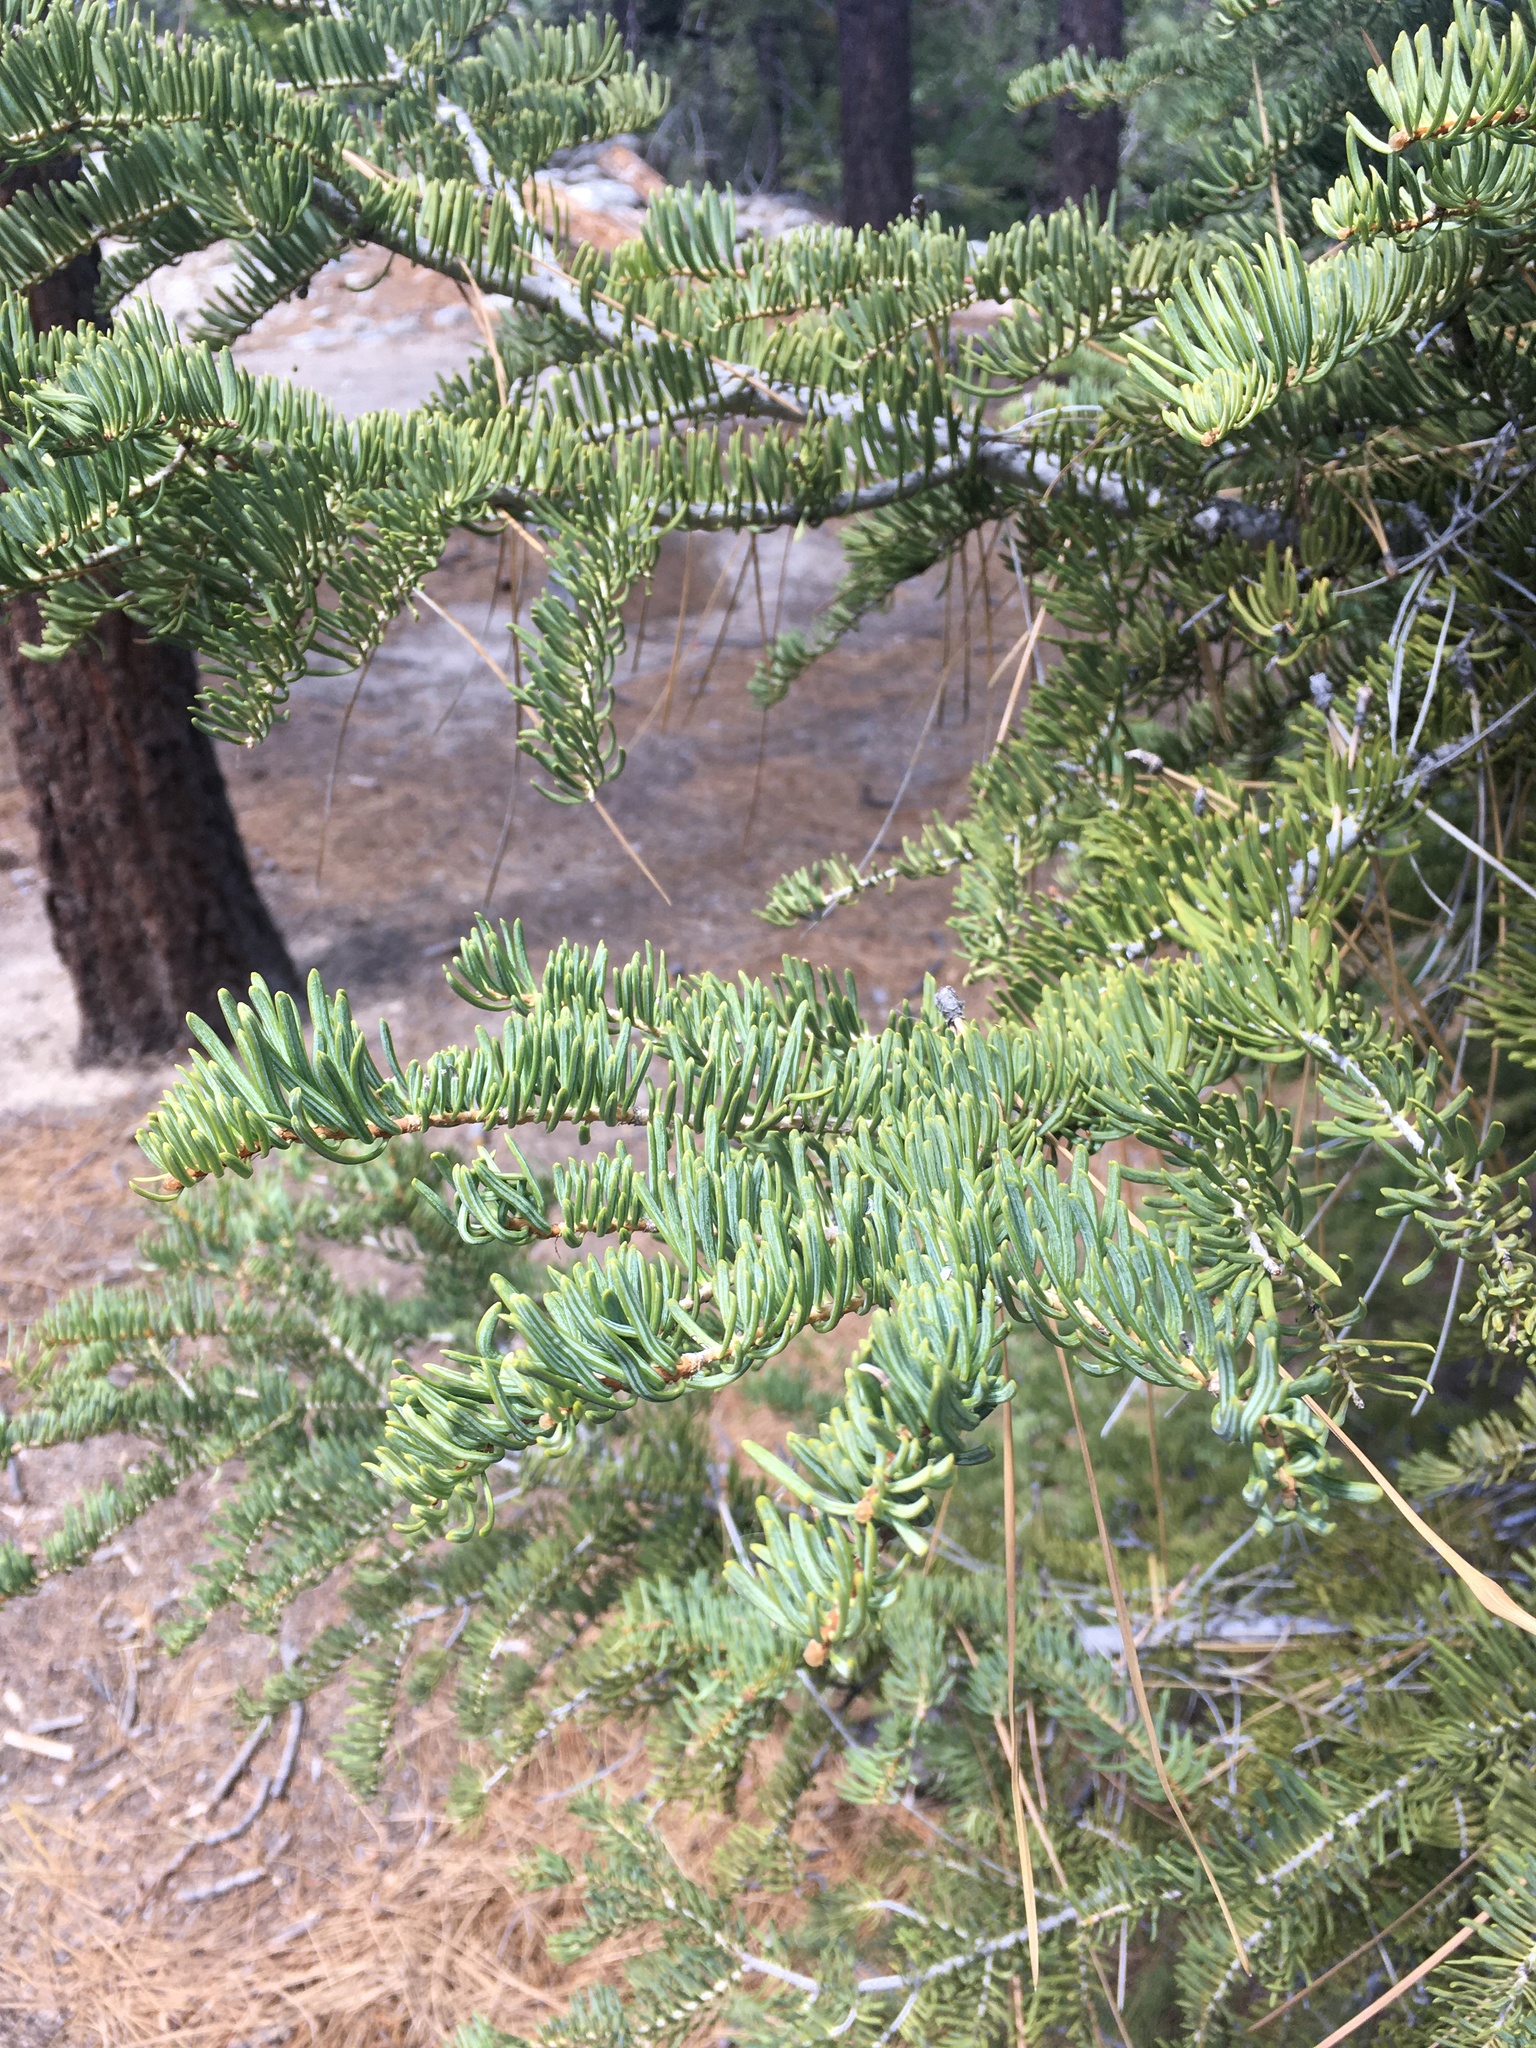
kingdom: Plantae
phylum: Tracheophyta
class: Pinopsida
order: Pinales
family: Pinaceae
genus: Abies
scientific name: Abies concolor
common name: Colorado fir
